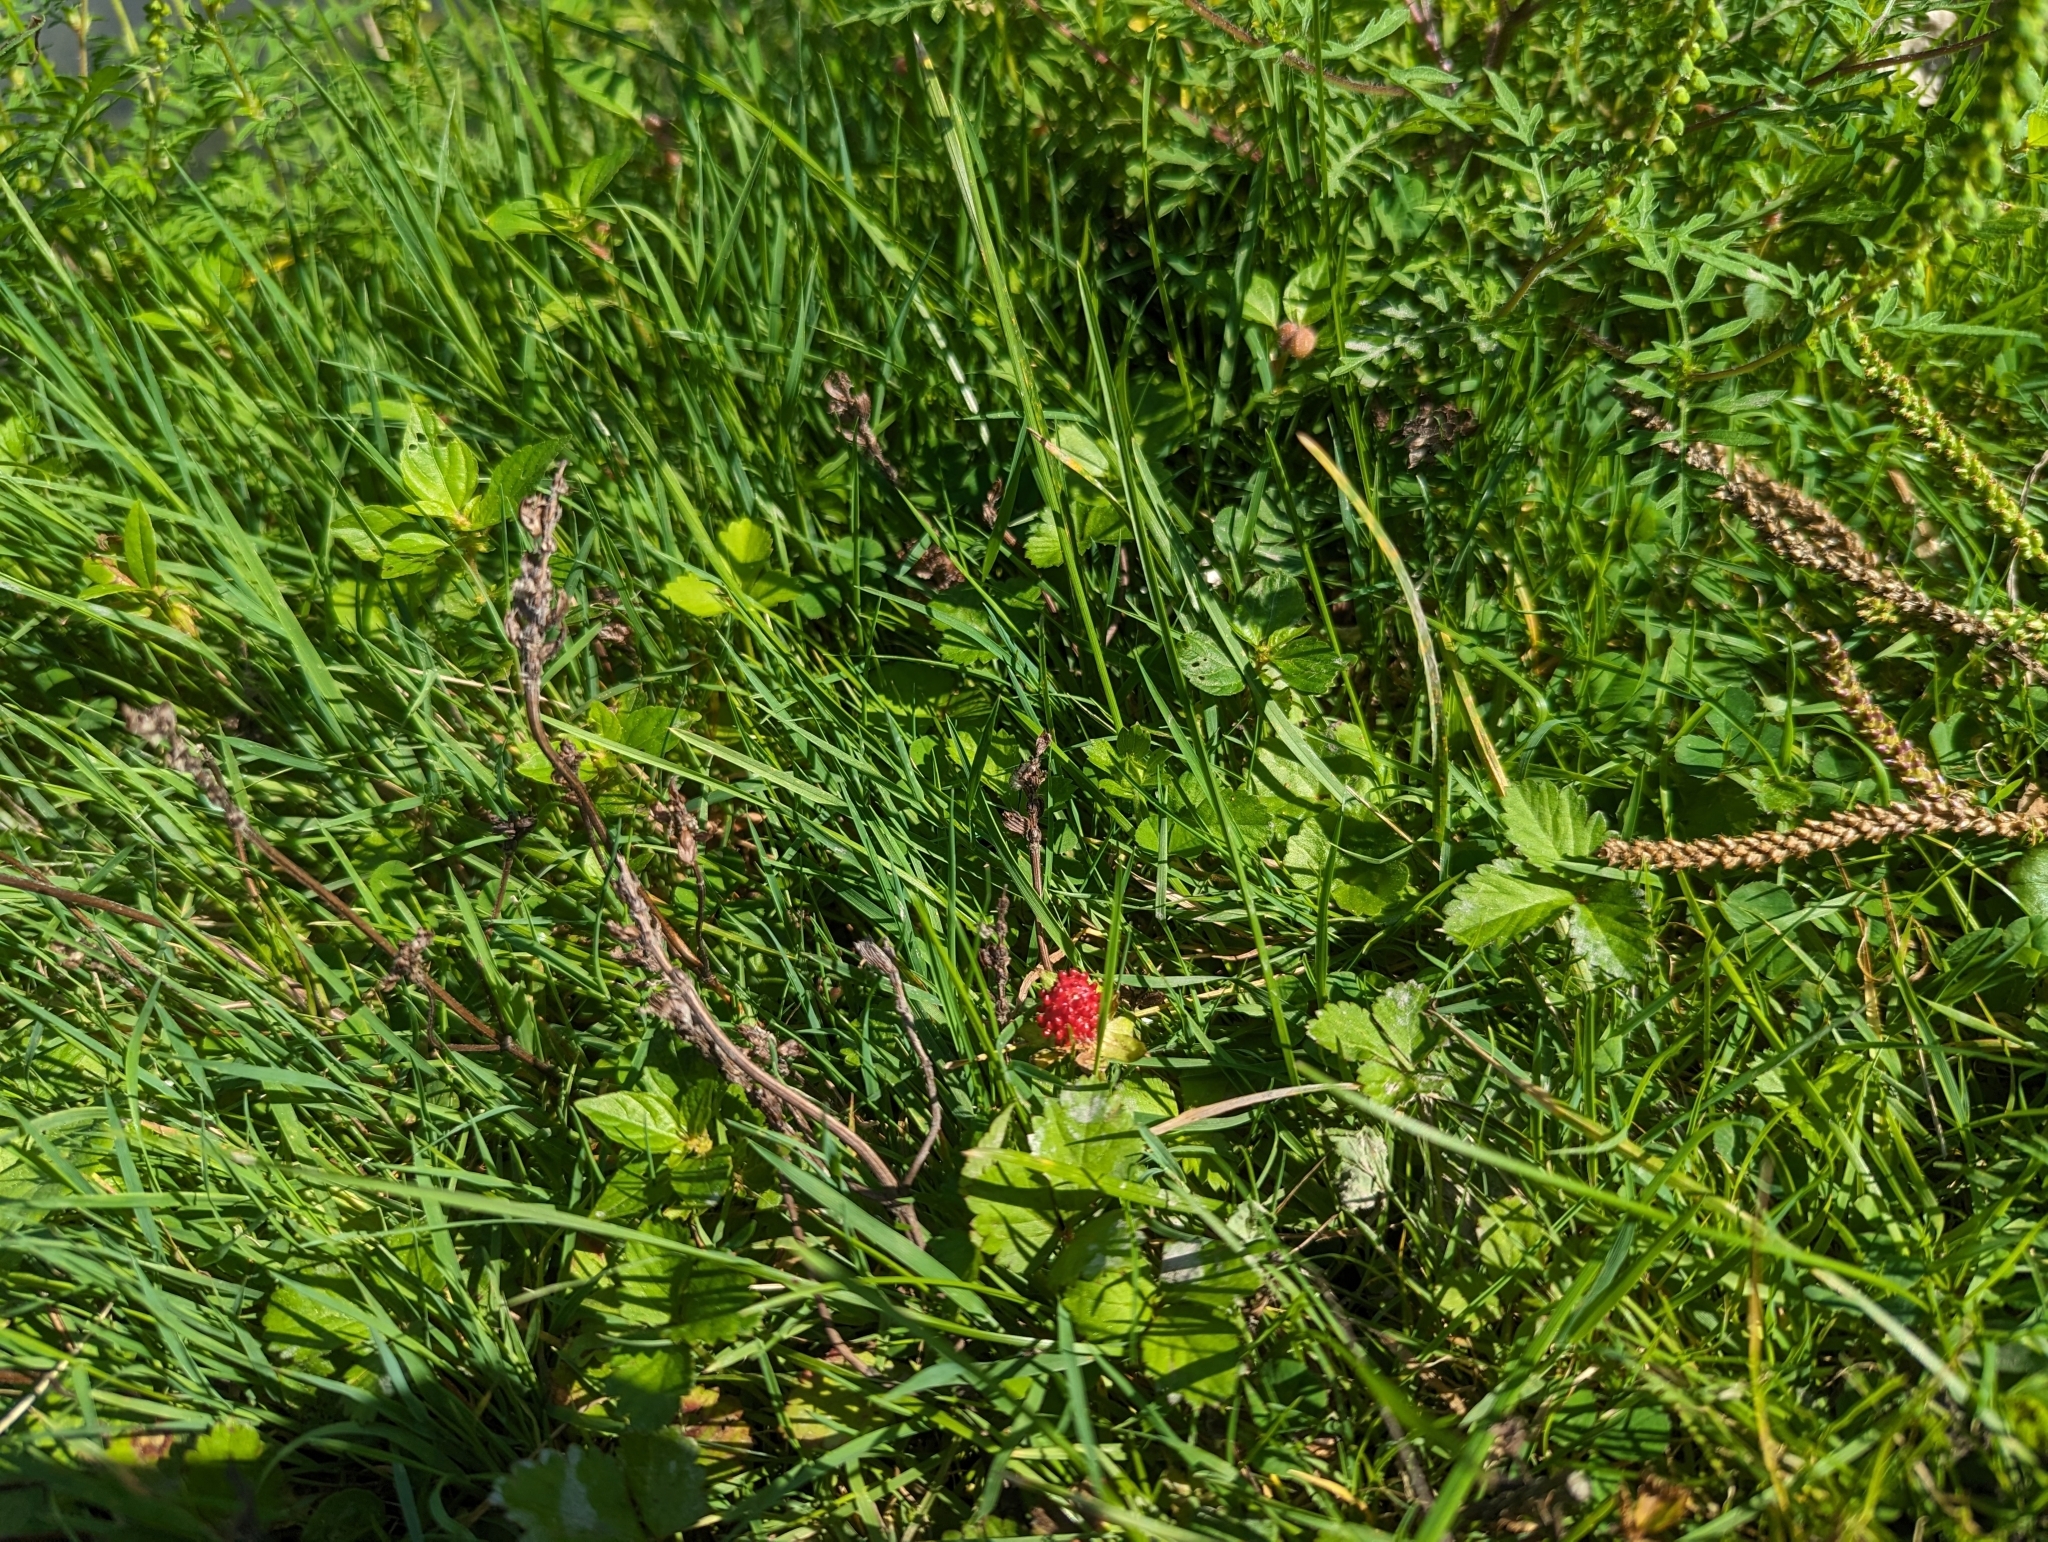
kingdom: Plantae
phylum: Tracheophyta
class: Magnoliopsida
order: Rosales
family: Rosaceae
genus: Potentilla
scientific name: Potentilla indica
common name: Yellow-flowered strawberry
